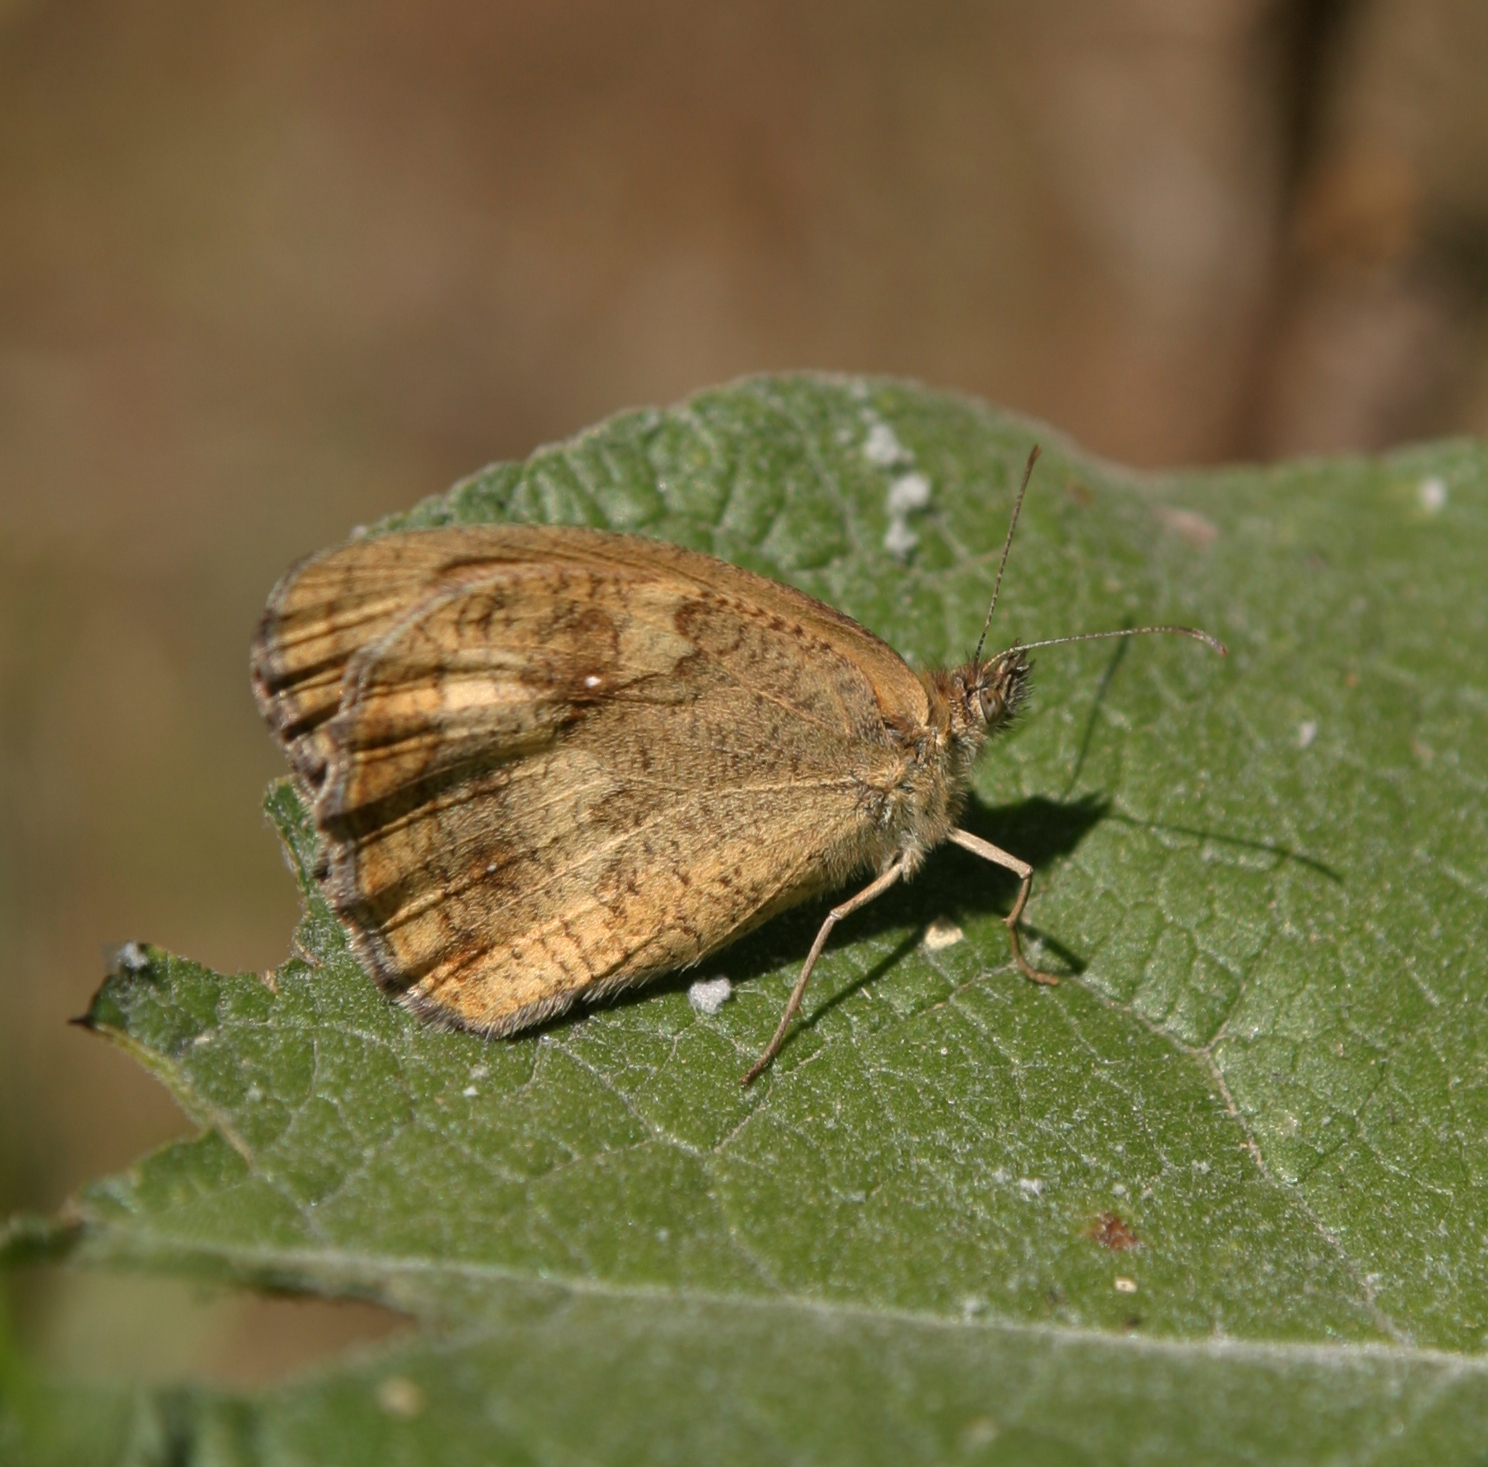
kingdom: Animalia
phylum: Arthropoda
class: Insecta
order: Lepidoptera
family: Nymphalidae
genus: Pyronia
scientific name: Pyronia tithonus
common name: Gatekeeper
